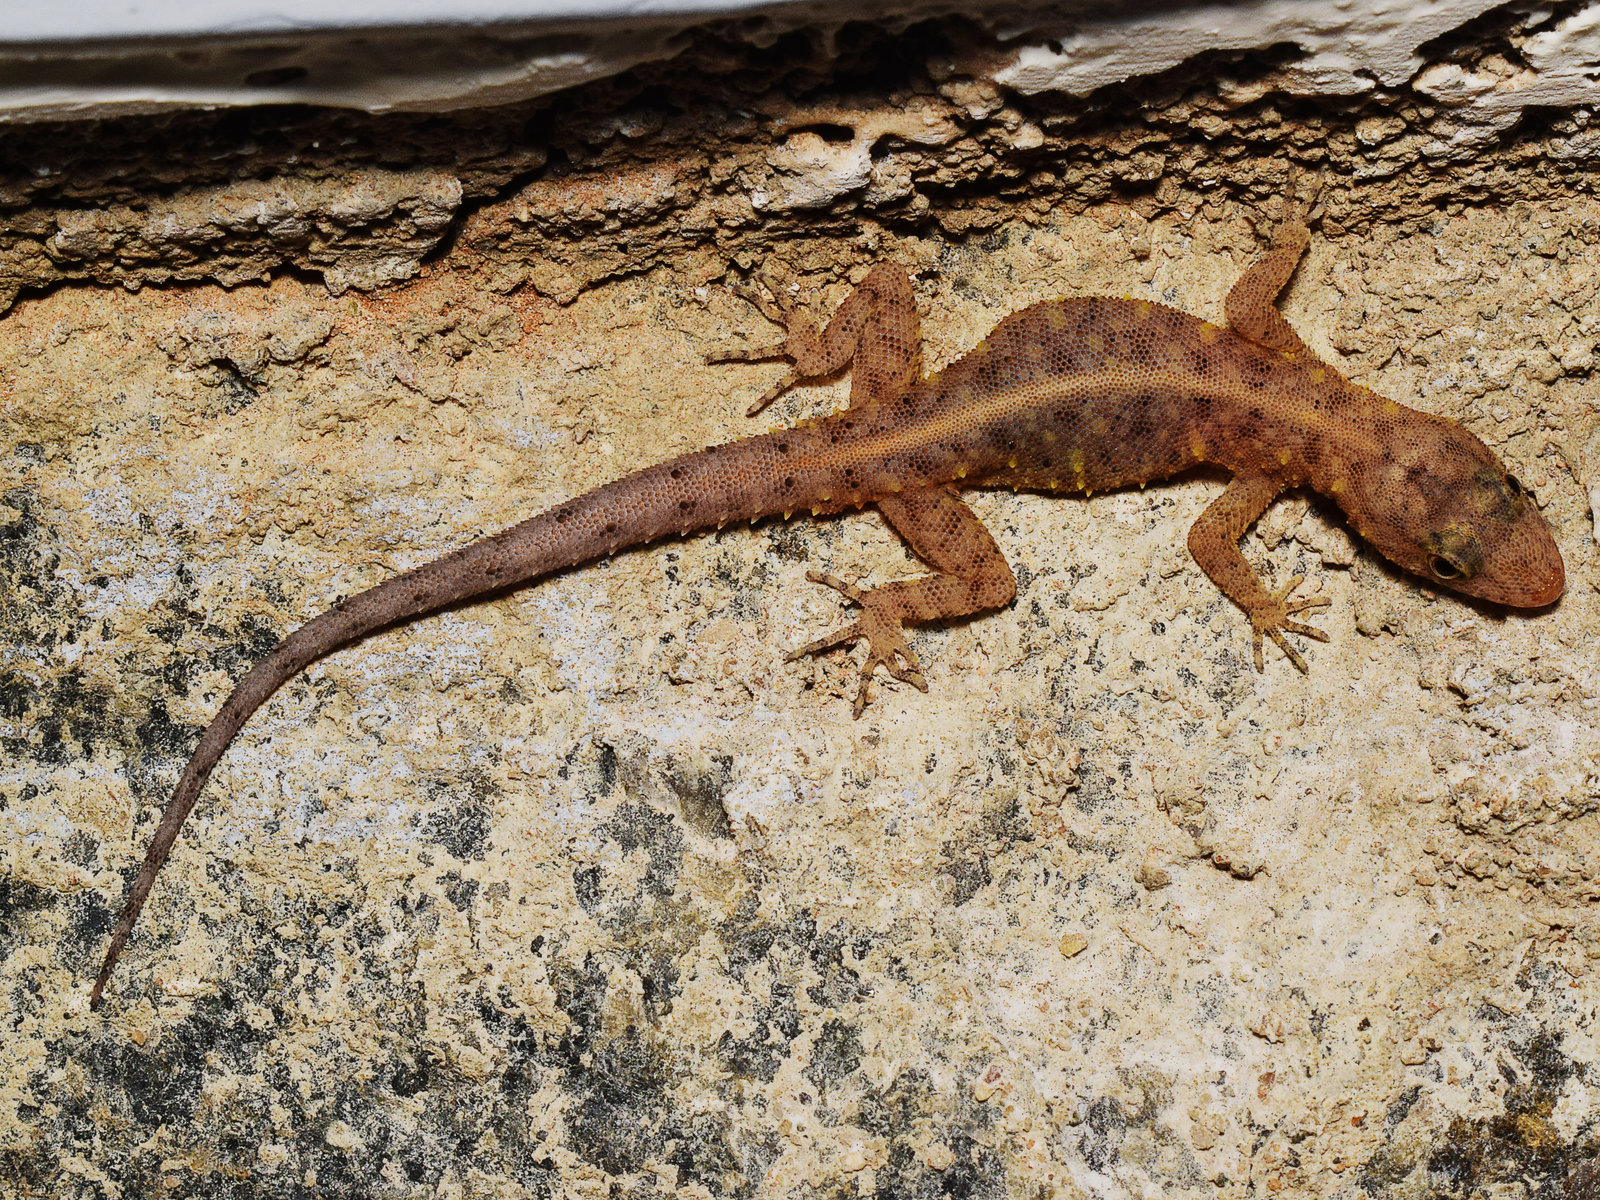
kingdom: Animalia
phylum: Chordata
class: Squamata
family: Gekkonidae
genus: Cnemaspis
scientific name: Cnemaspis yercaudensis
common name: Yercaud day gecko
